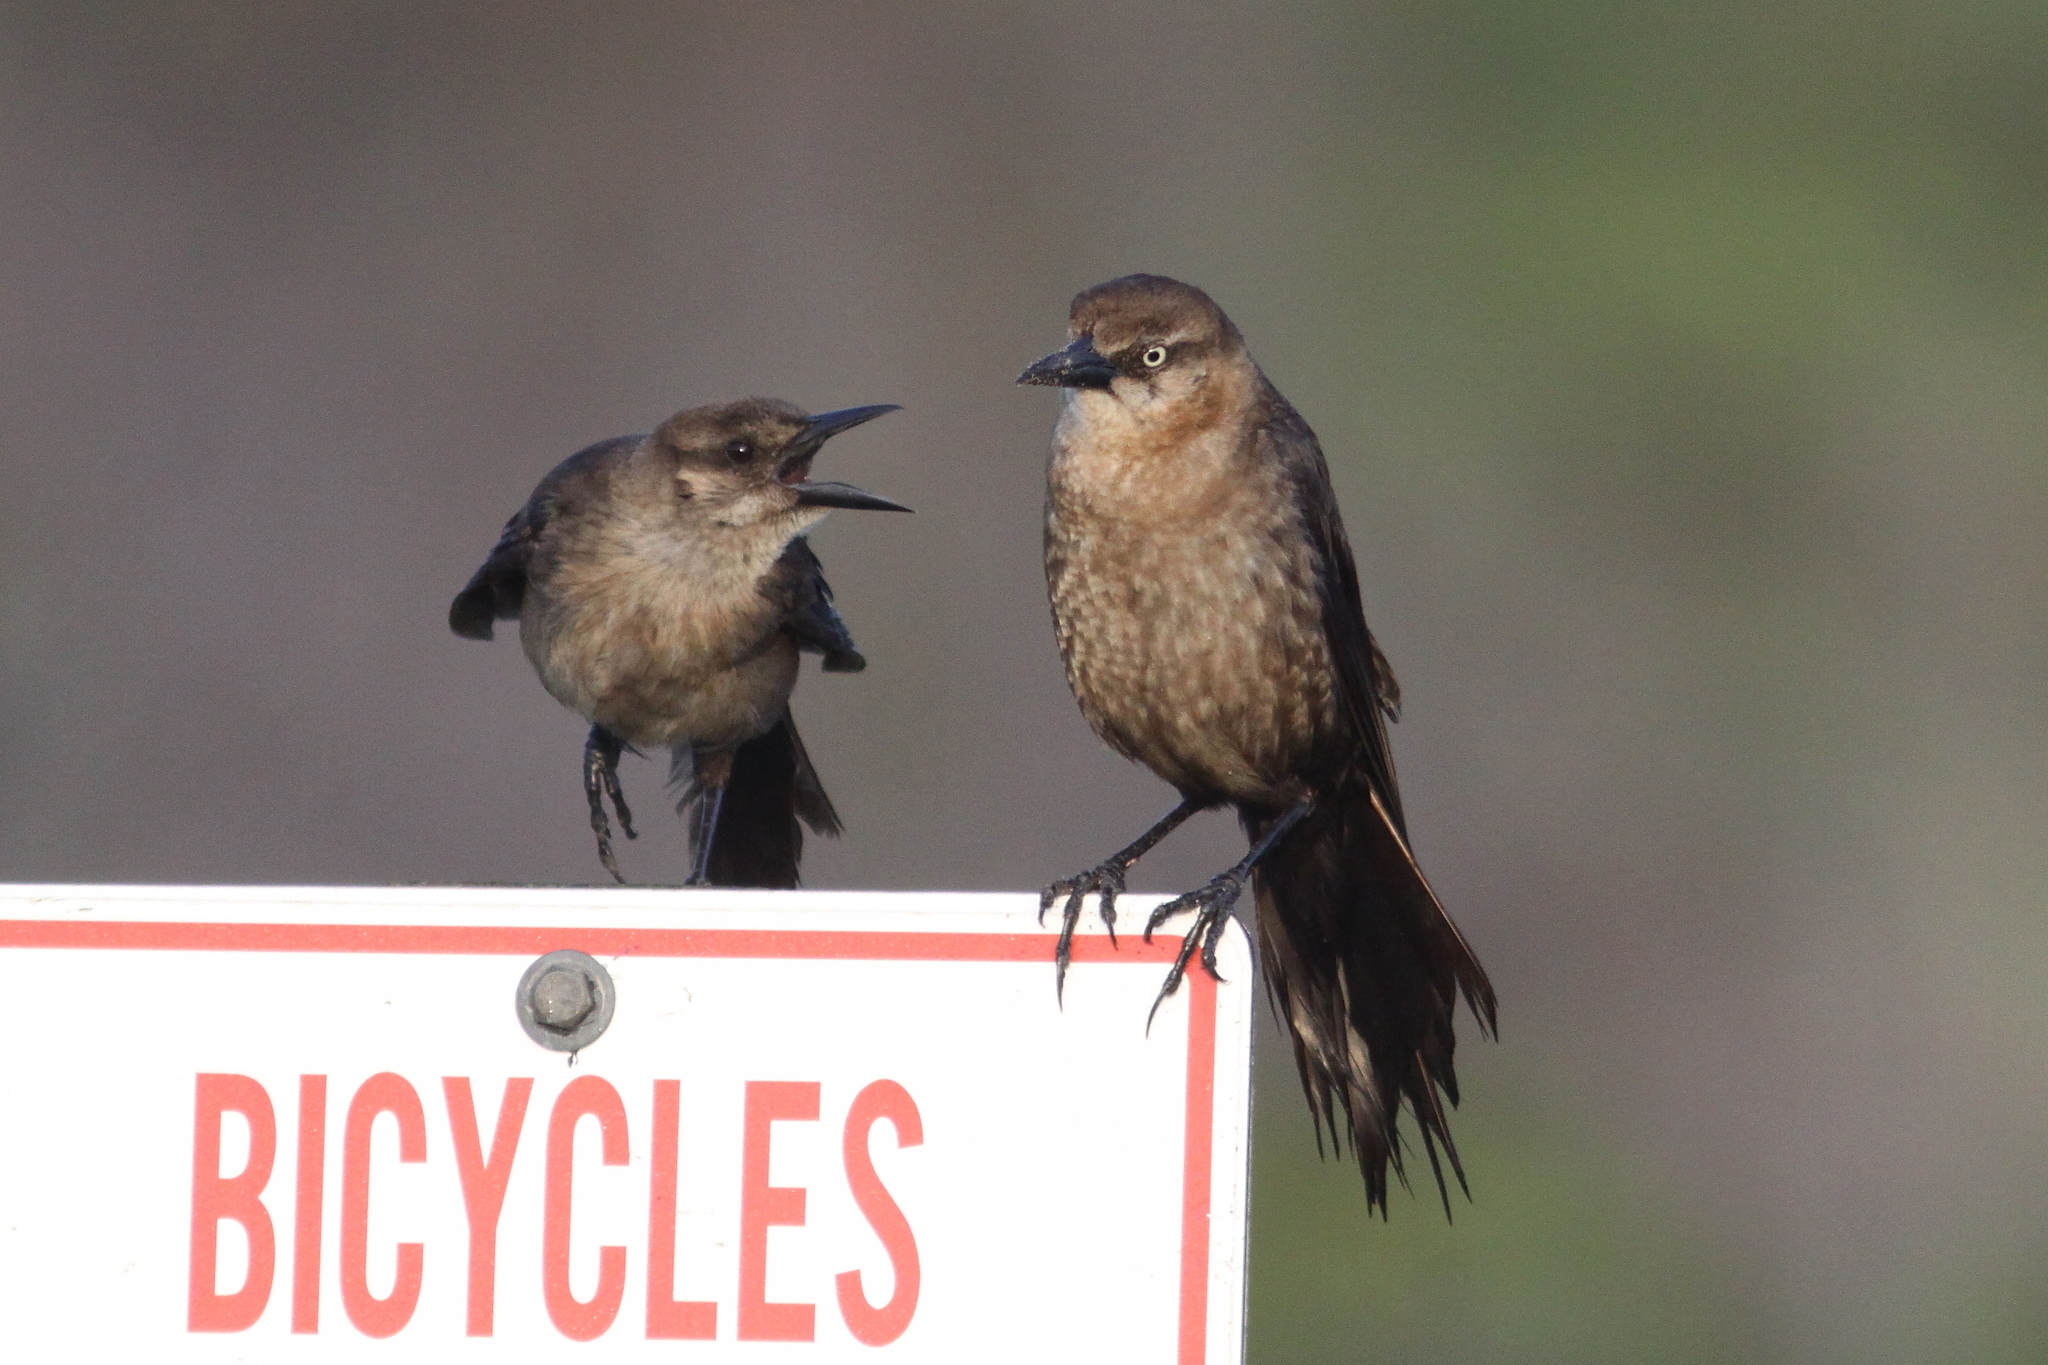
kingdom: Animalia
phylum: Chordata
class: Aves
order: Passeriformes
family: Icteridae
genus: Quiscalus
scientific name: Quiscalus major
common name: Boat-tailed grackle
